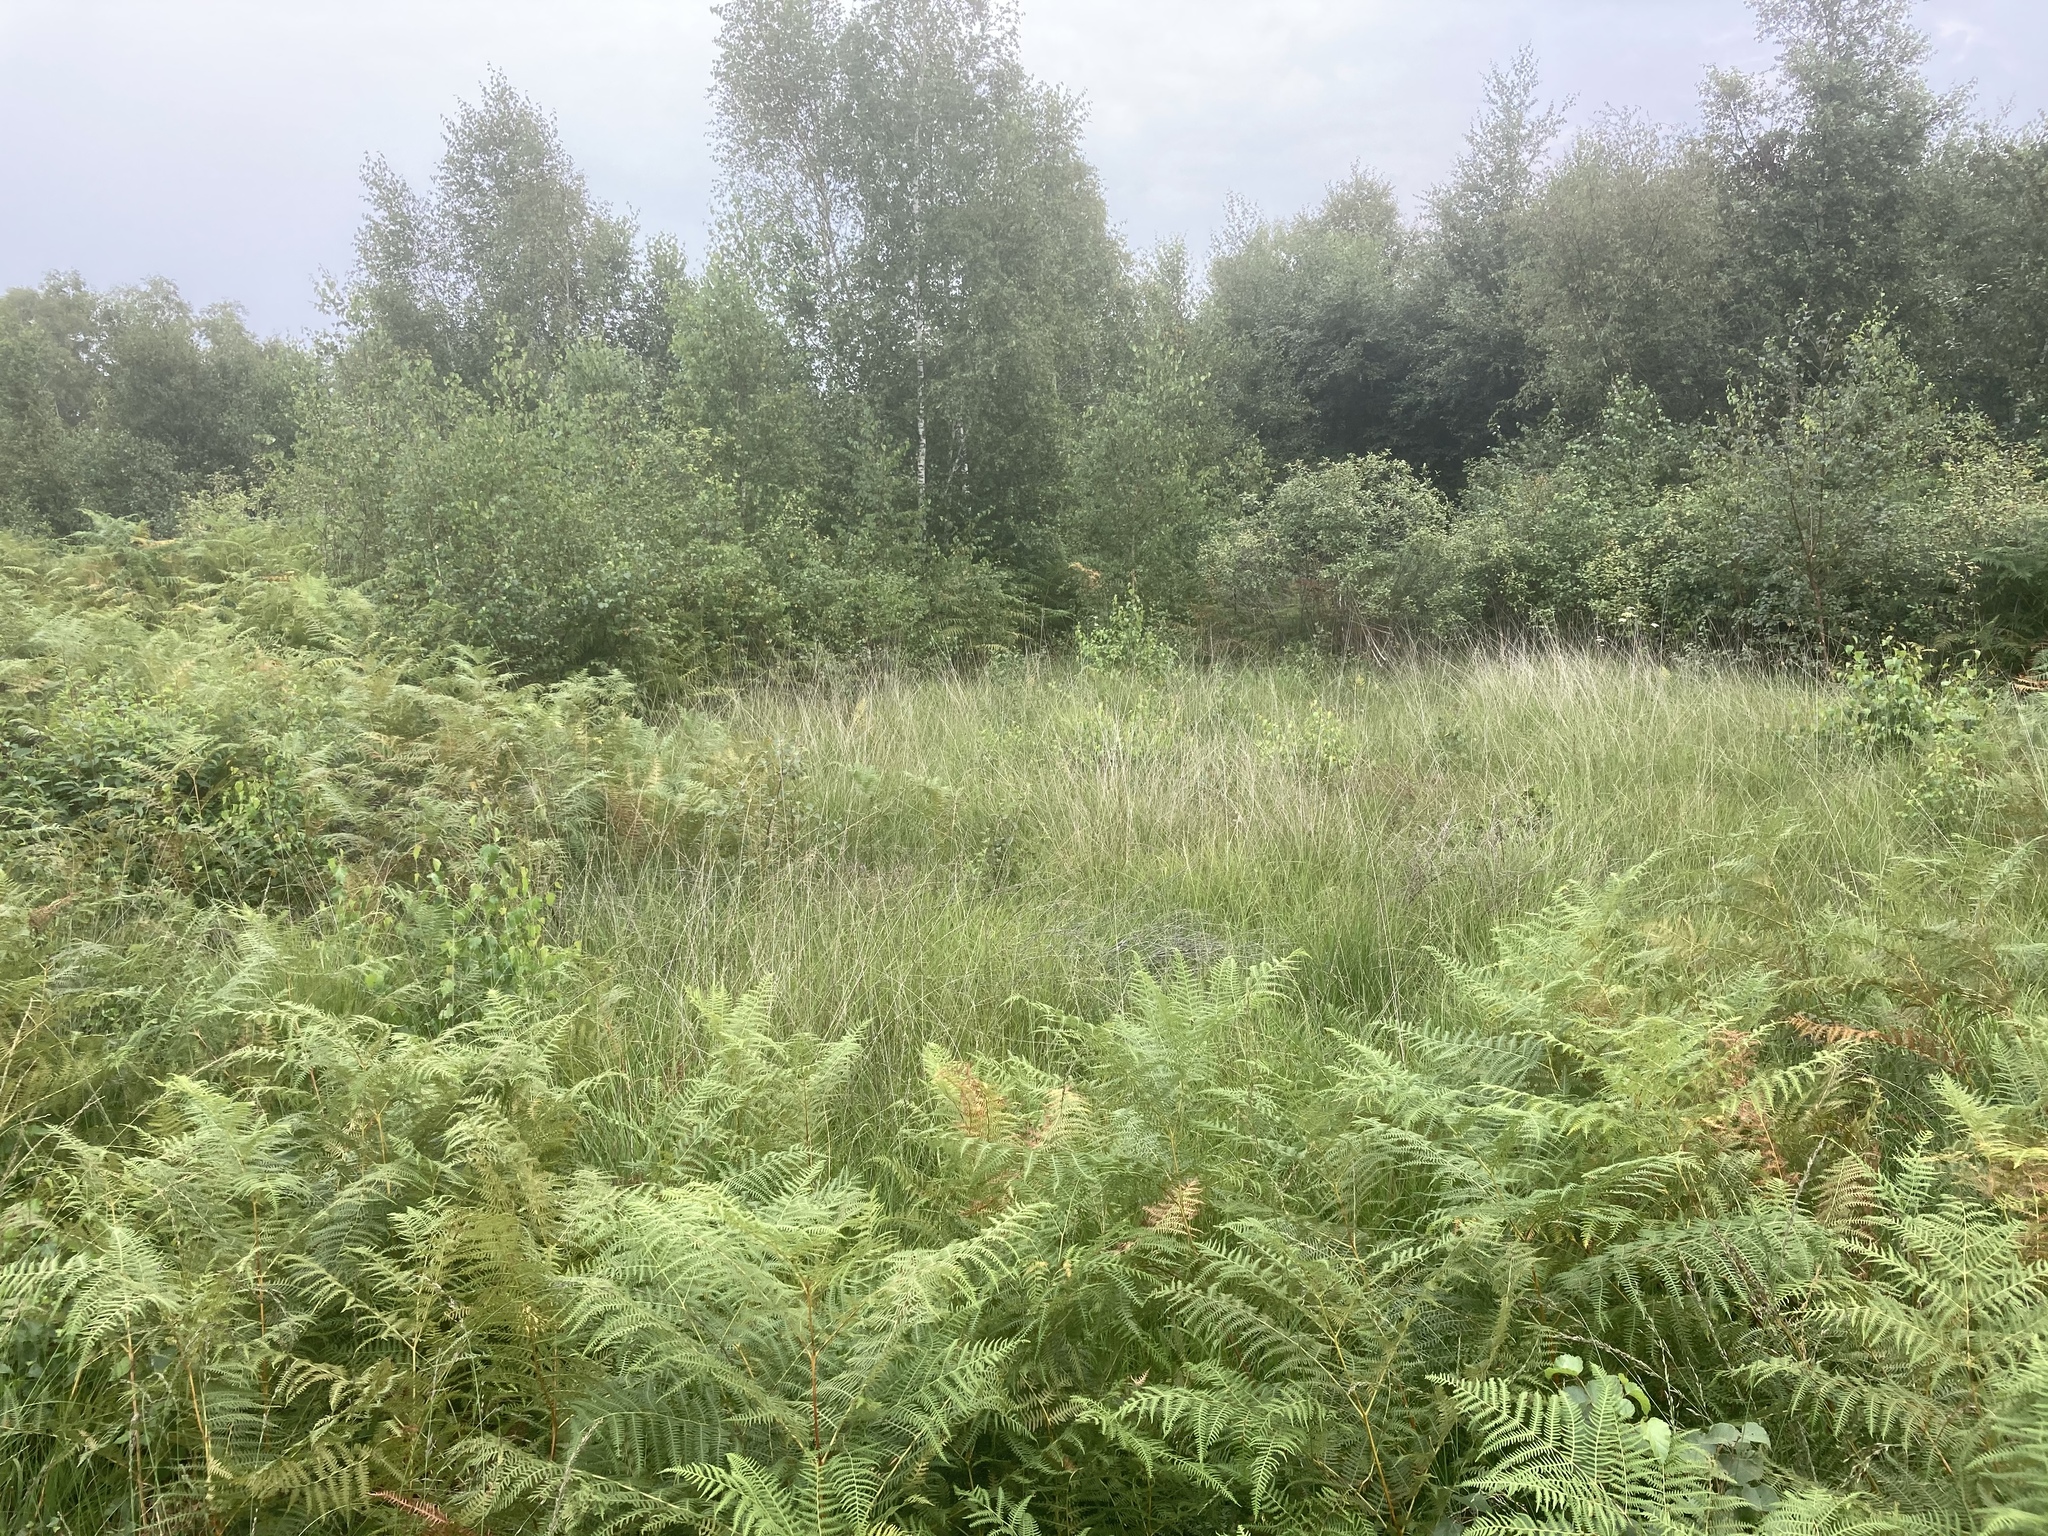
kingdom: Plantae
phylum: Tracheophyta
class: Polypodiopsida
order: Polypodiales
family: Dennstaedtiaceae
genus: Pteridium
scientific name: Pteridium aquilinum
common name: Bracken
